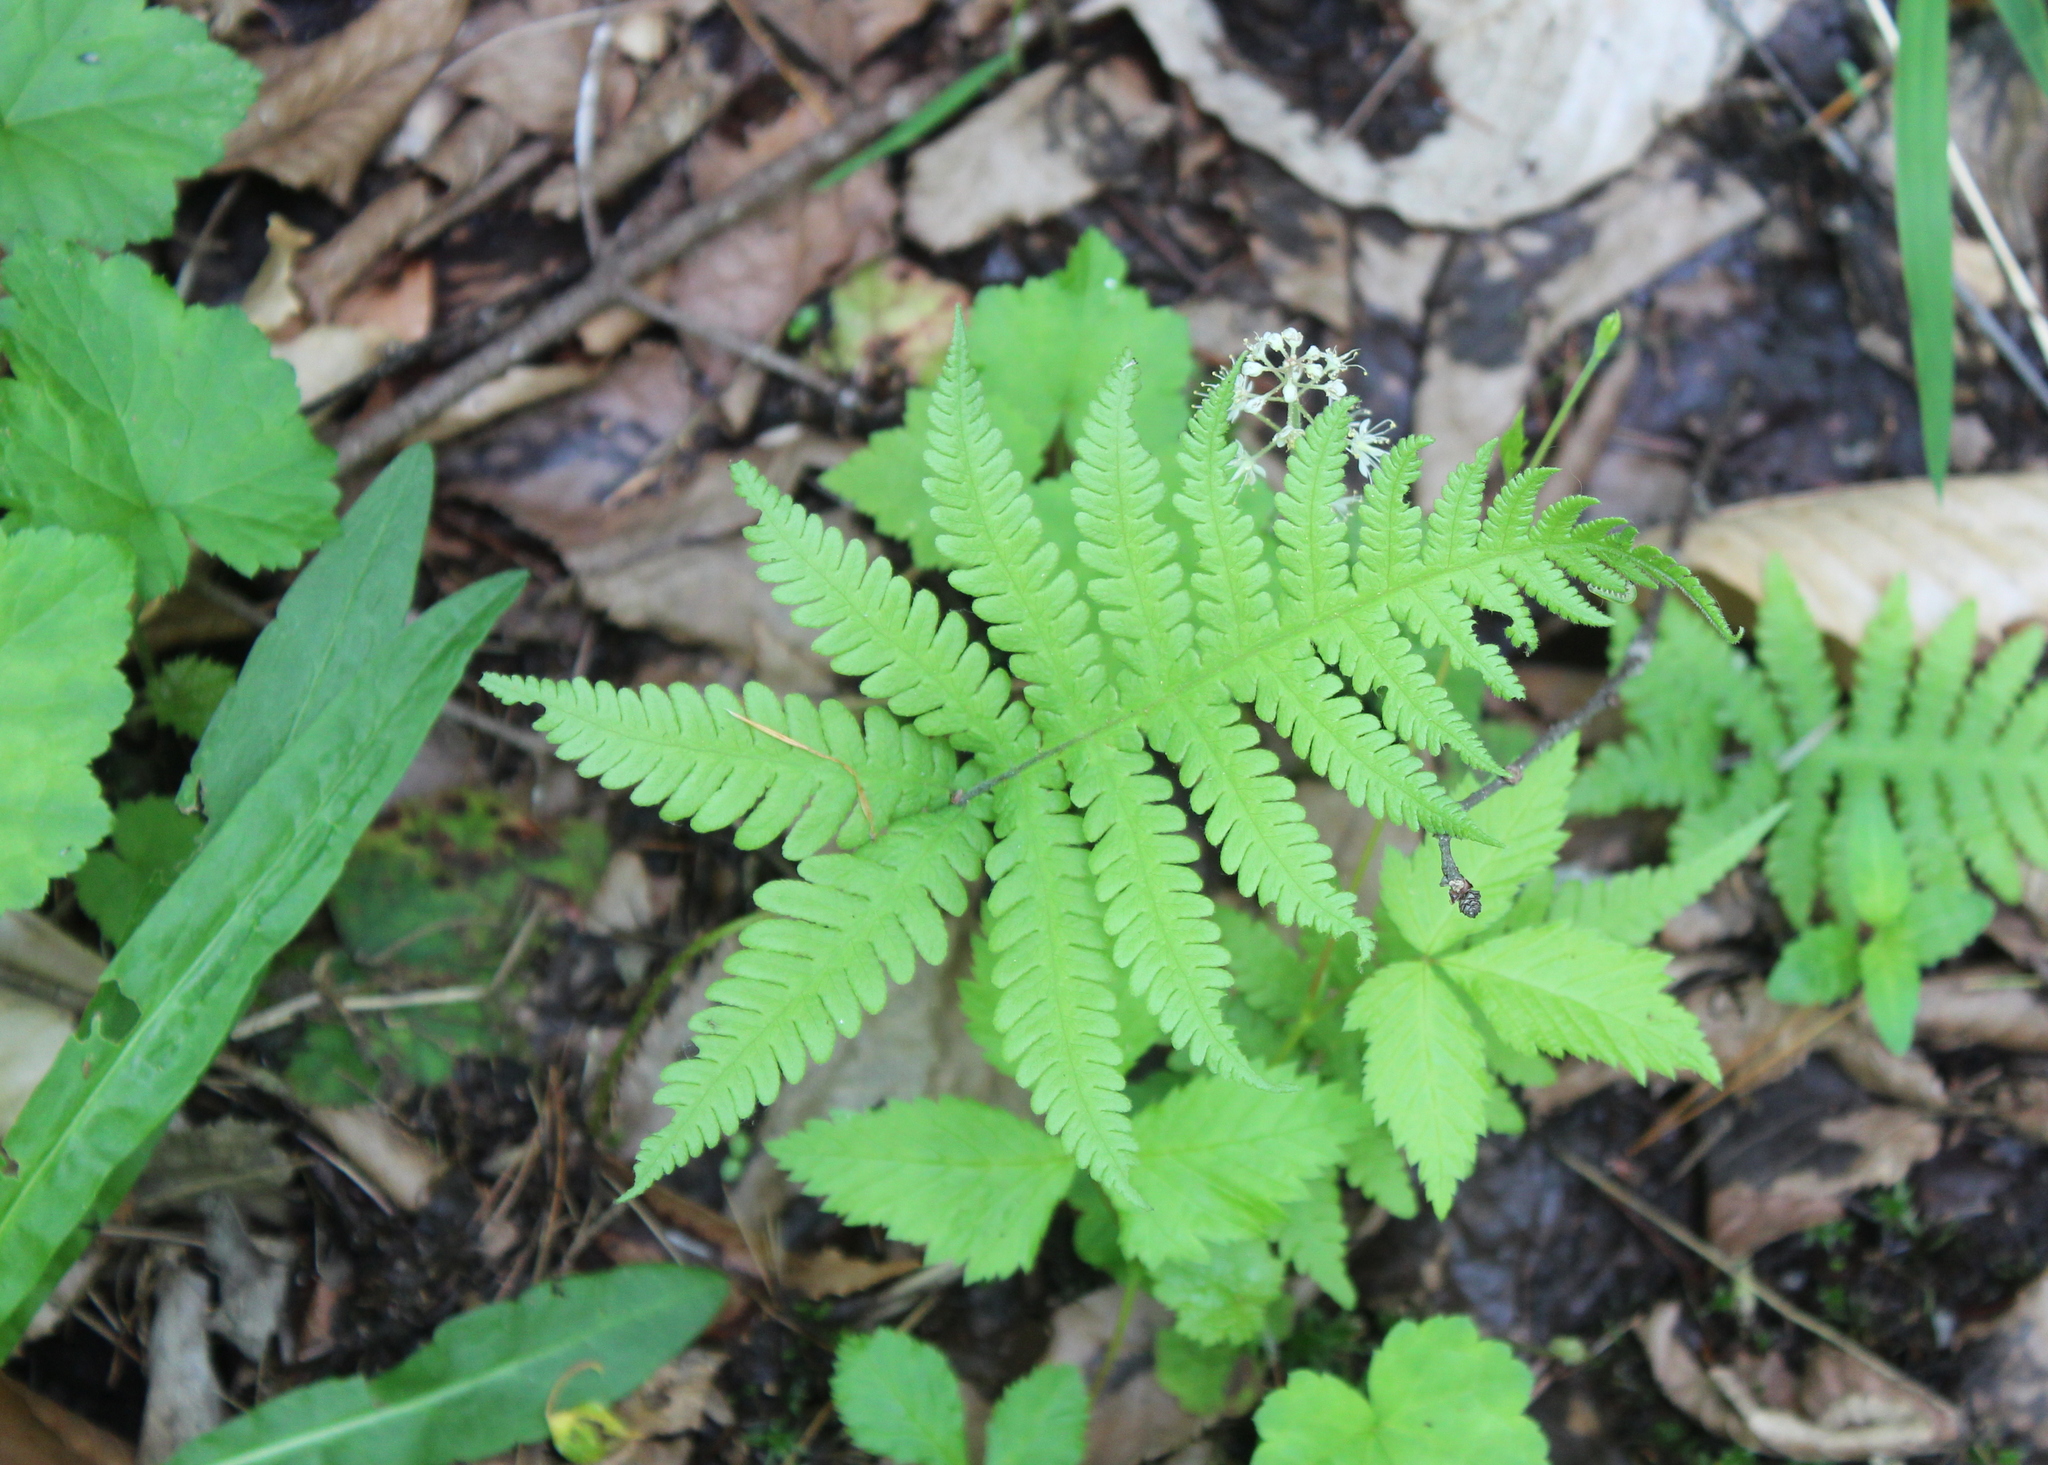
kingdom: Plantae
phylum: Tracheophyta
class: Polypodiopsida
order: Polypodiales
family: Thelypteridaceae
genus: Phegopteris
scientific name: Phegopteris connectilis
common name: Beech fern
